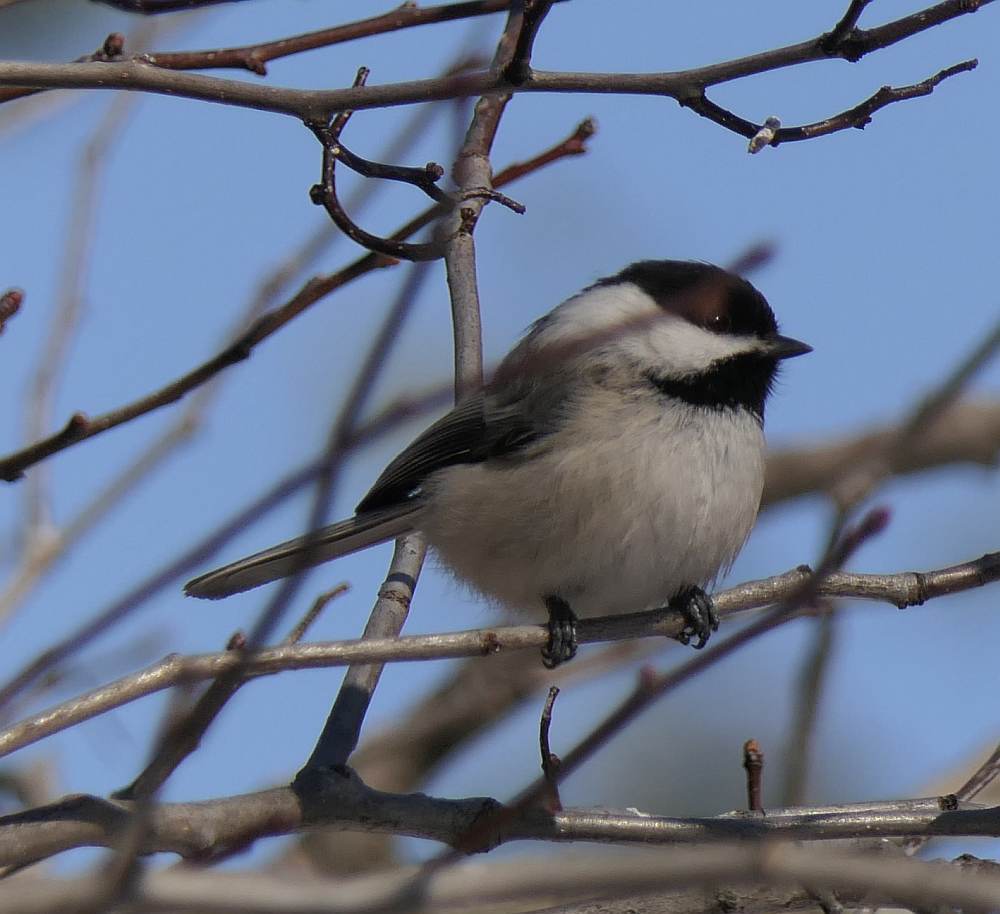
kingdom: Animalia
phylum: Chordata
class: Aves
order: Passeriformes
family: Paridae
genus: Poecile
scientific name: Poecile atricapillus
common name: Black-capped chickadee
